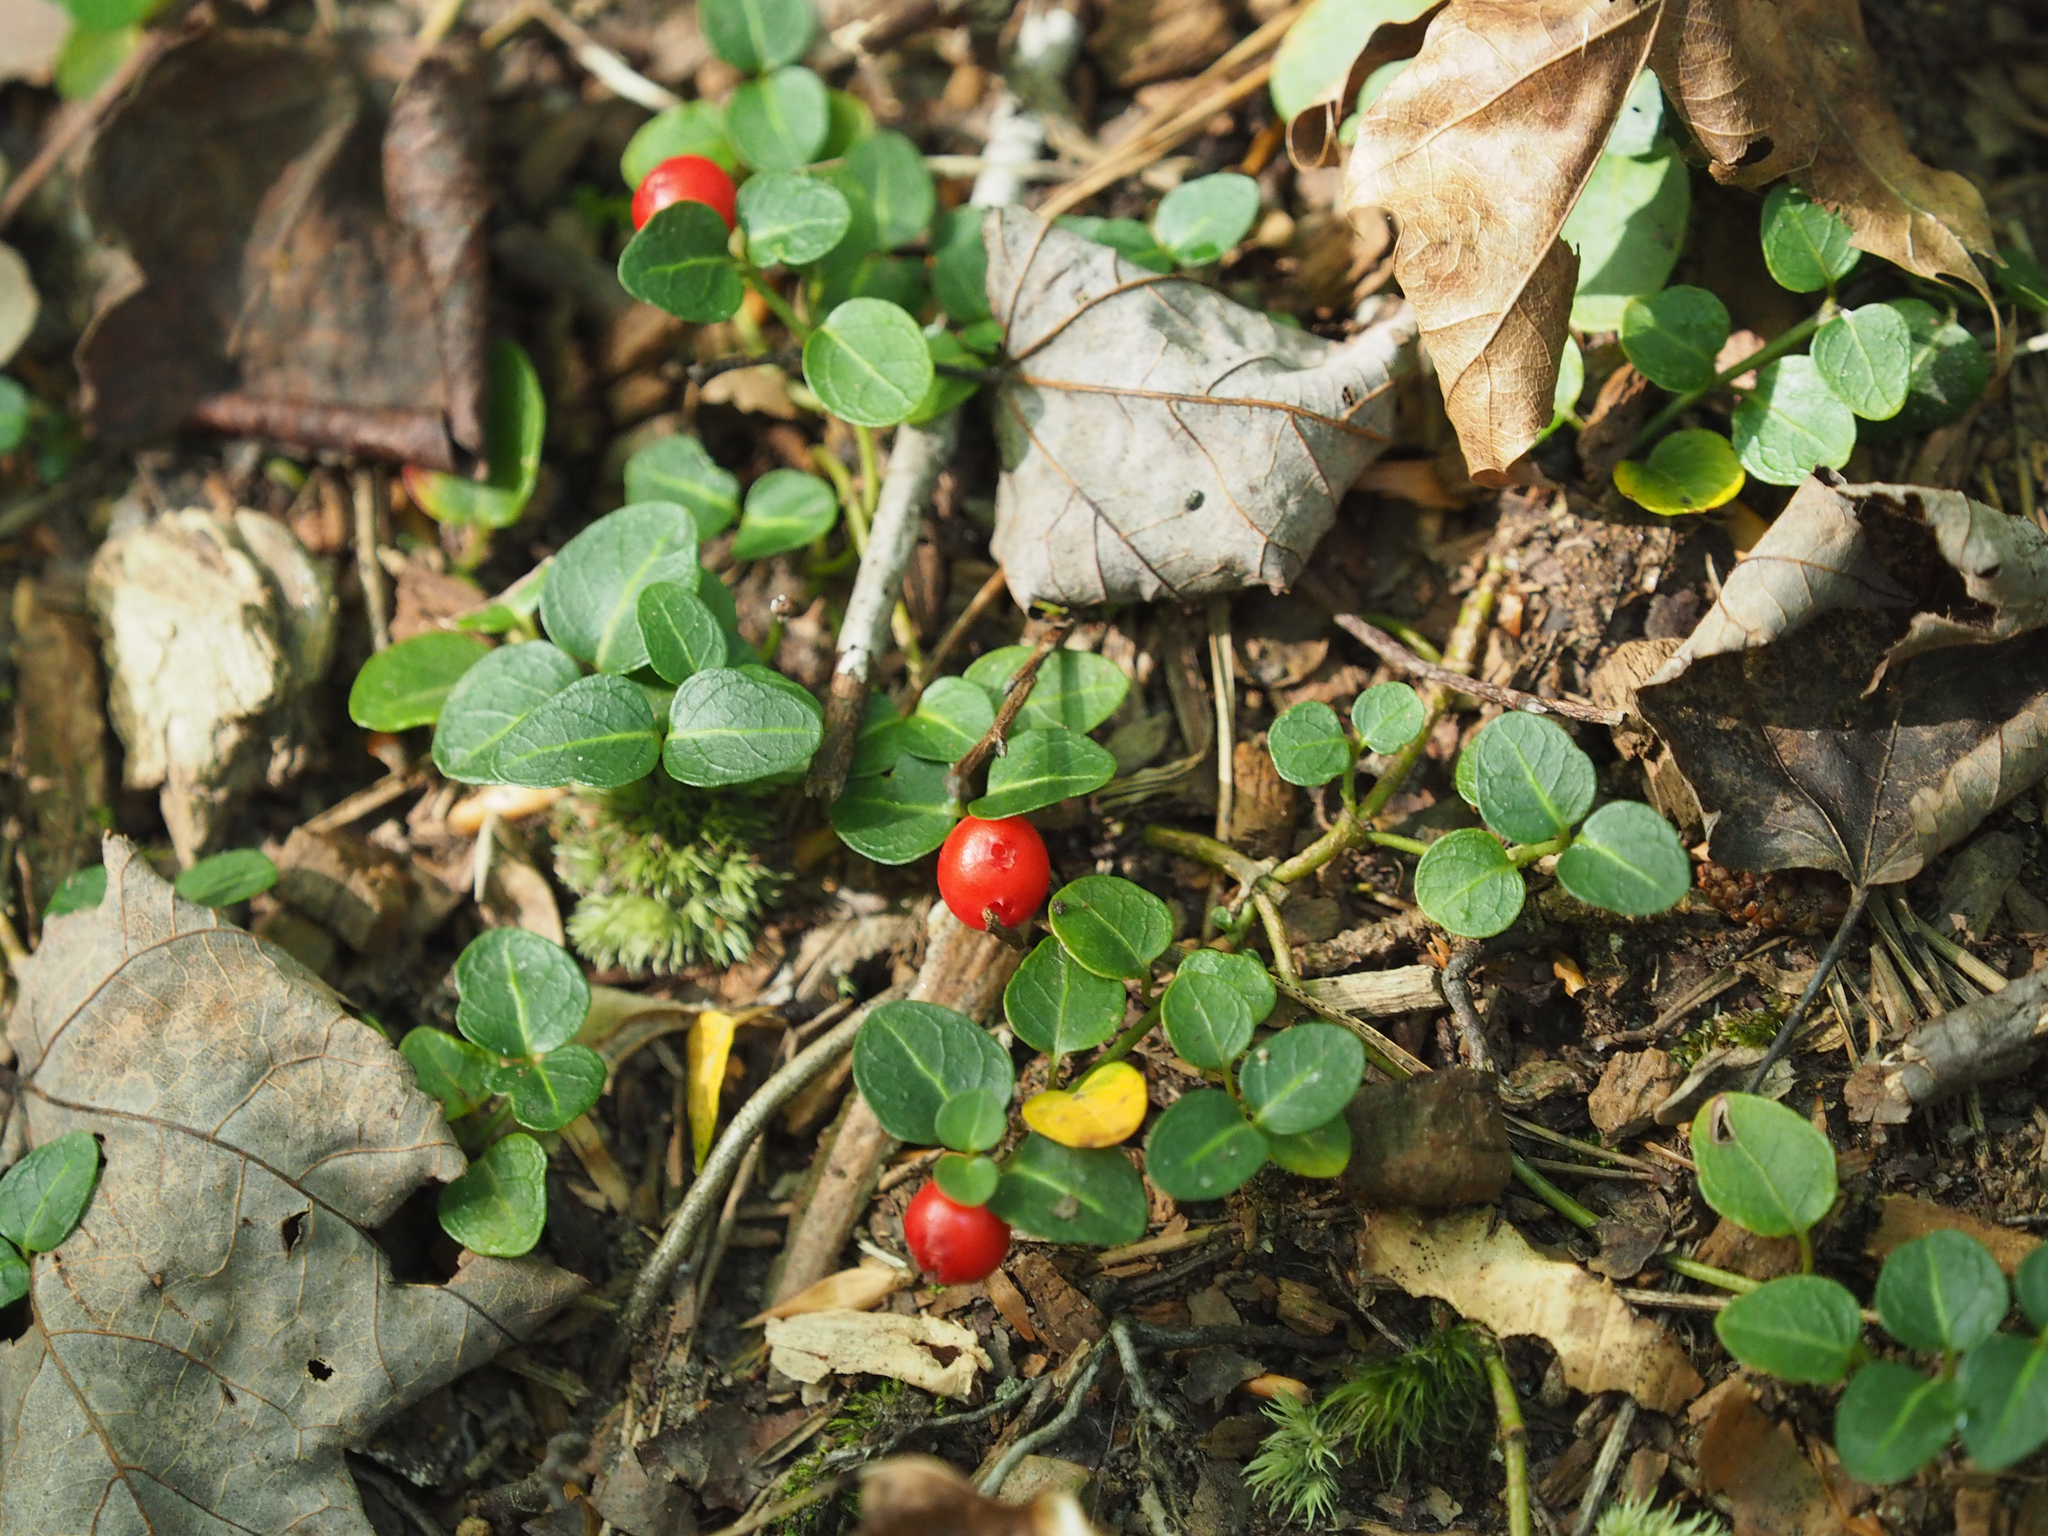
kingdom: Plantae
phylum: Tracheophyta
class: Magnoliopsida
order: Gentianales
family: Rubiaceae
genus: Mitchella
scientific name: Mitchella repens
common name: Partridge-berry
